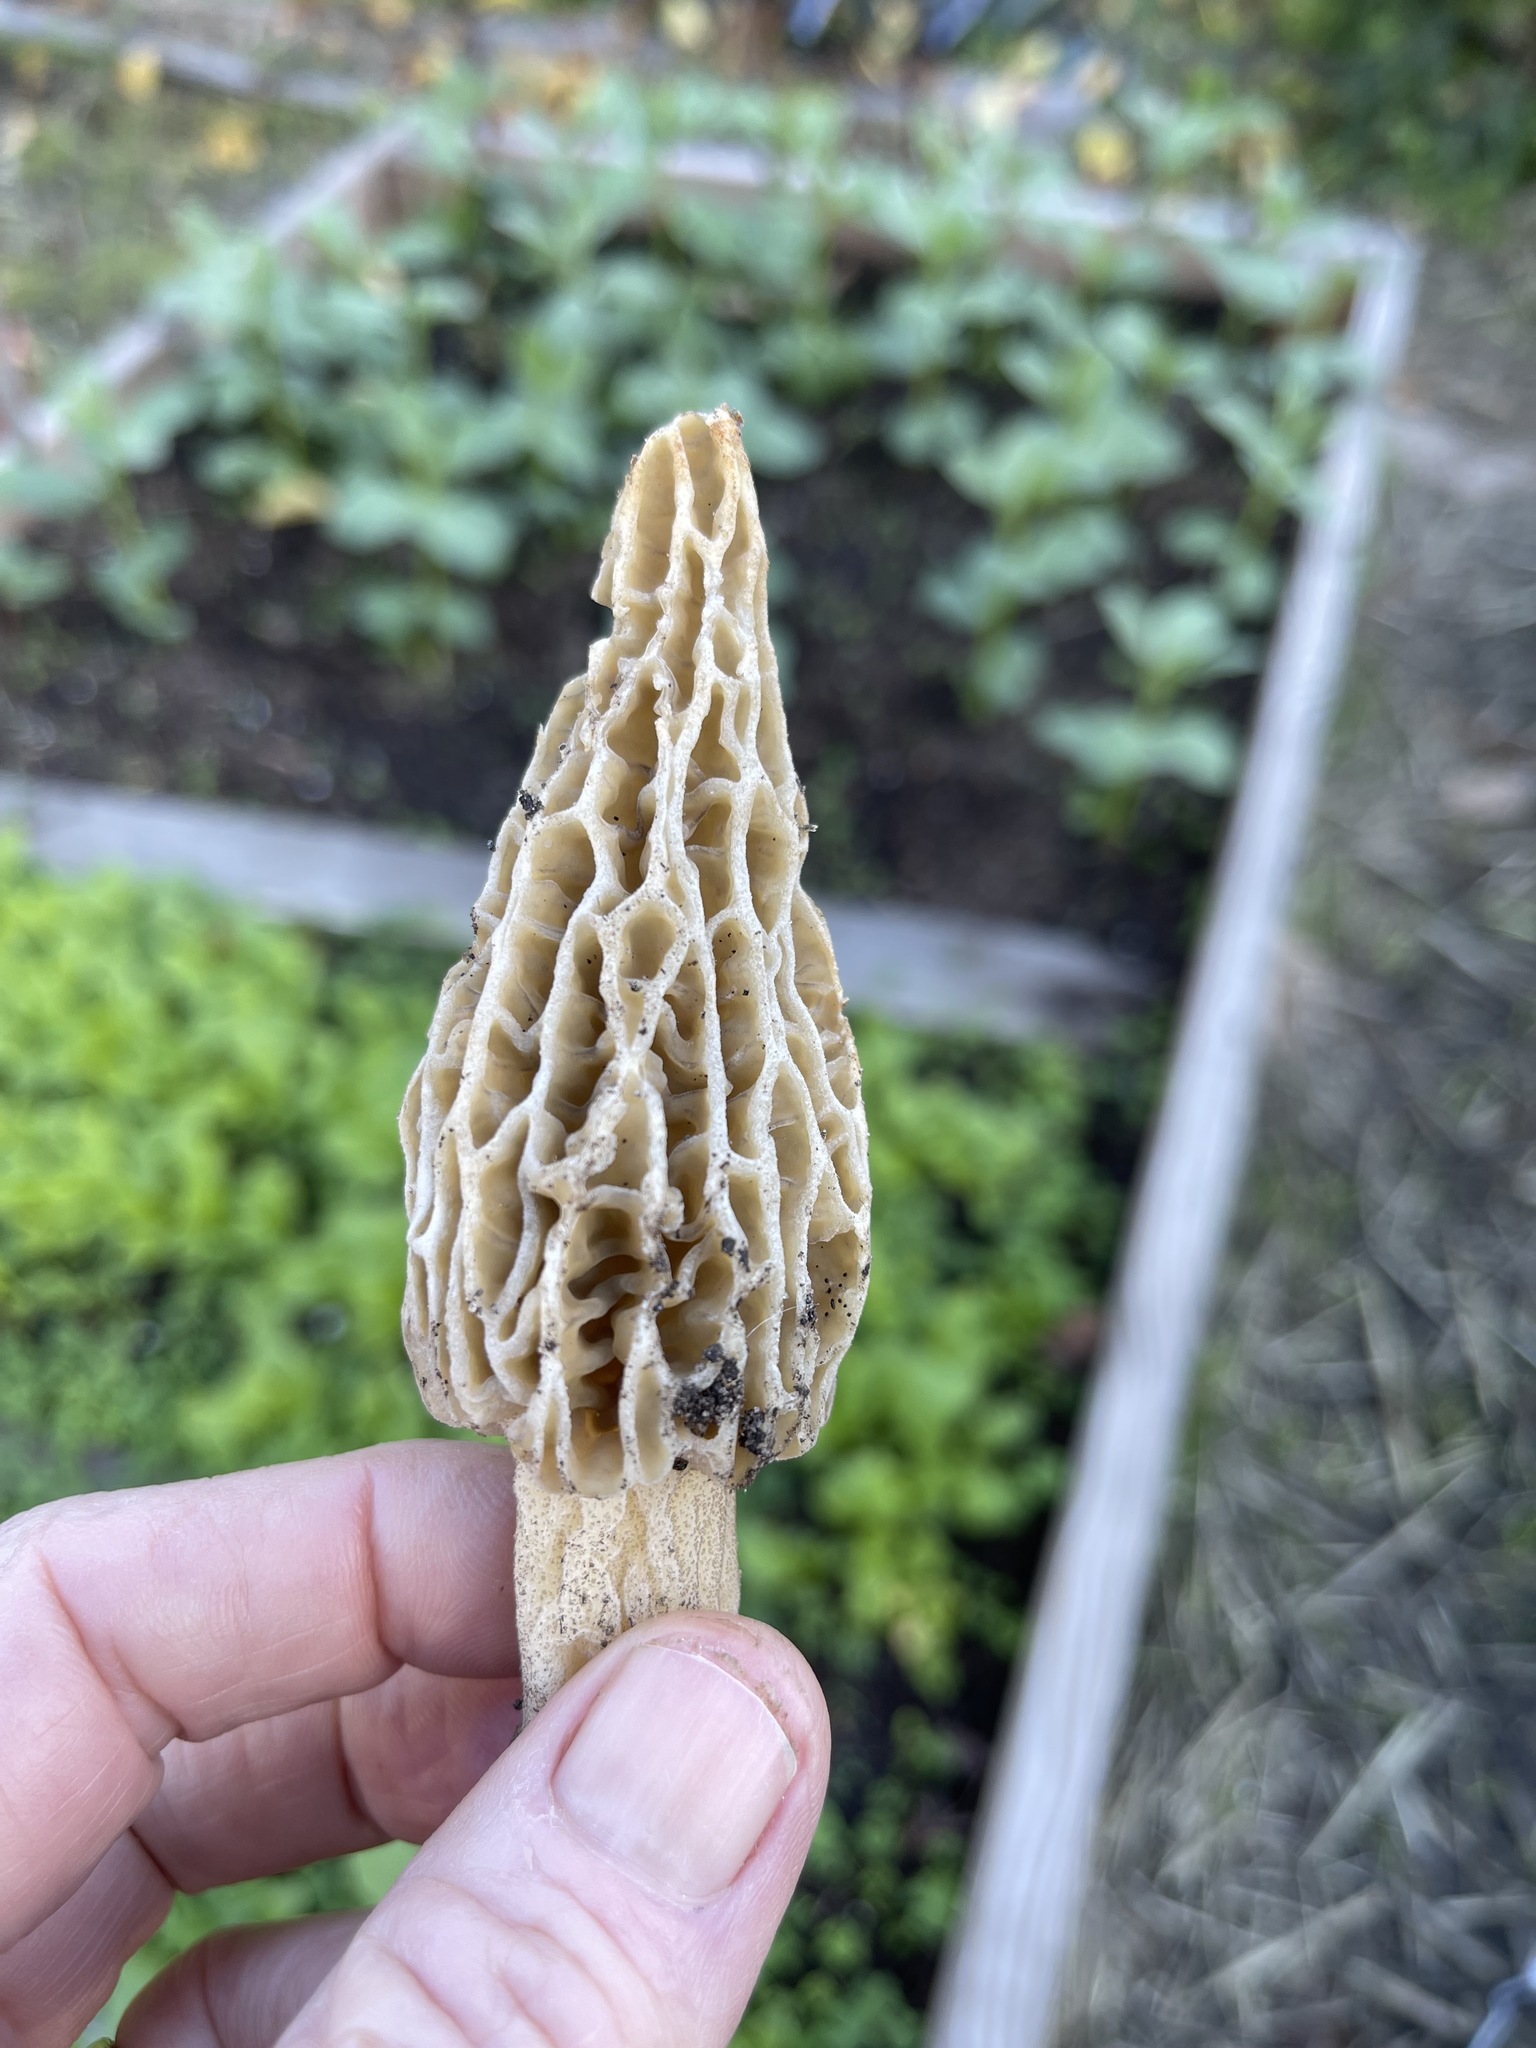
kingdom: Fungi
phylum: Ascomycota
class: Pezizomycetes
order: Pezizales
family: Morchellaceae
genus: Morchella
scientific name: Morchella rufobrunnea
